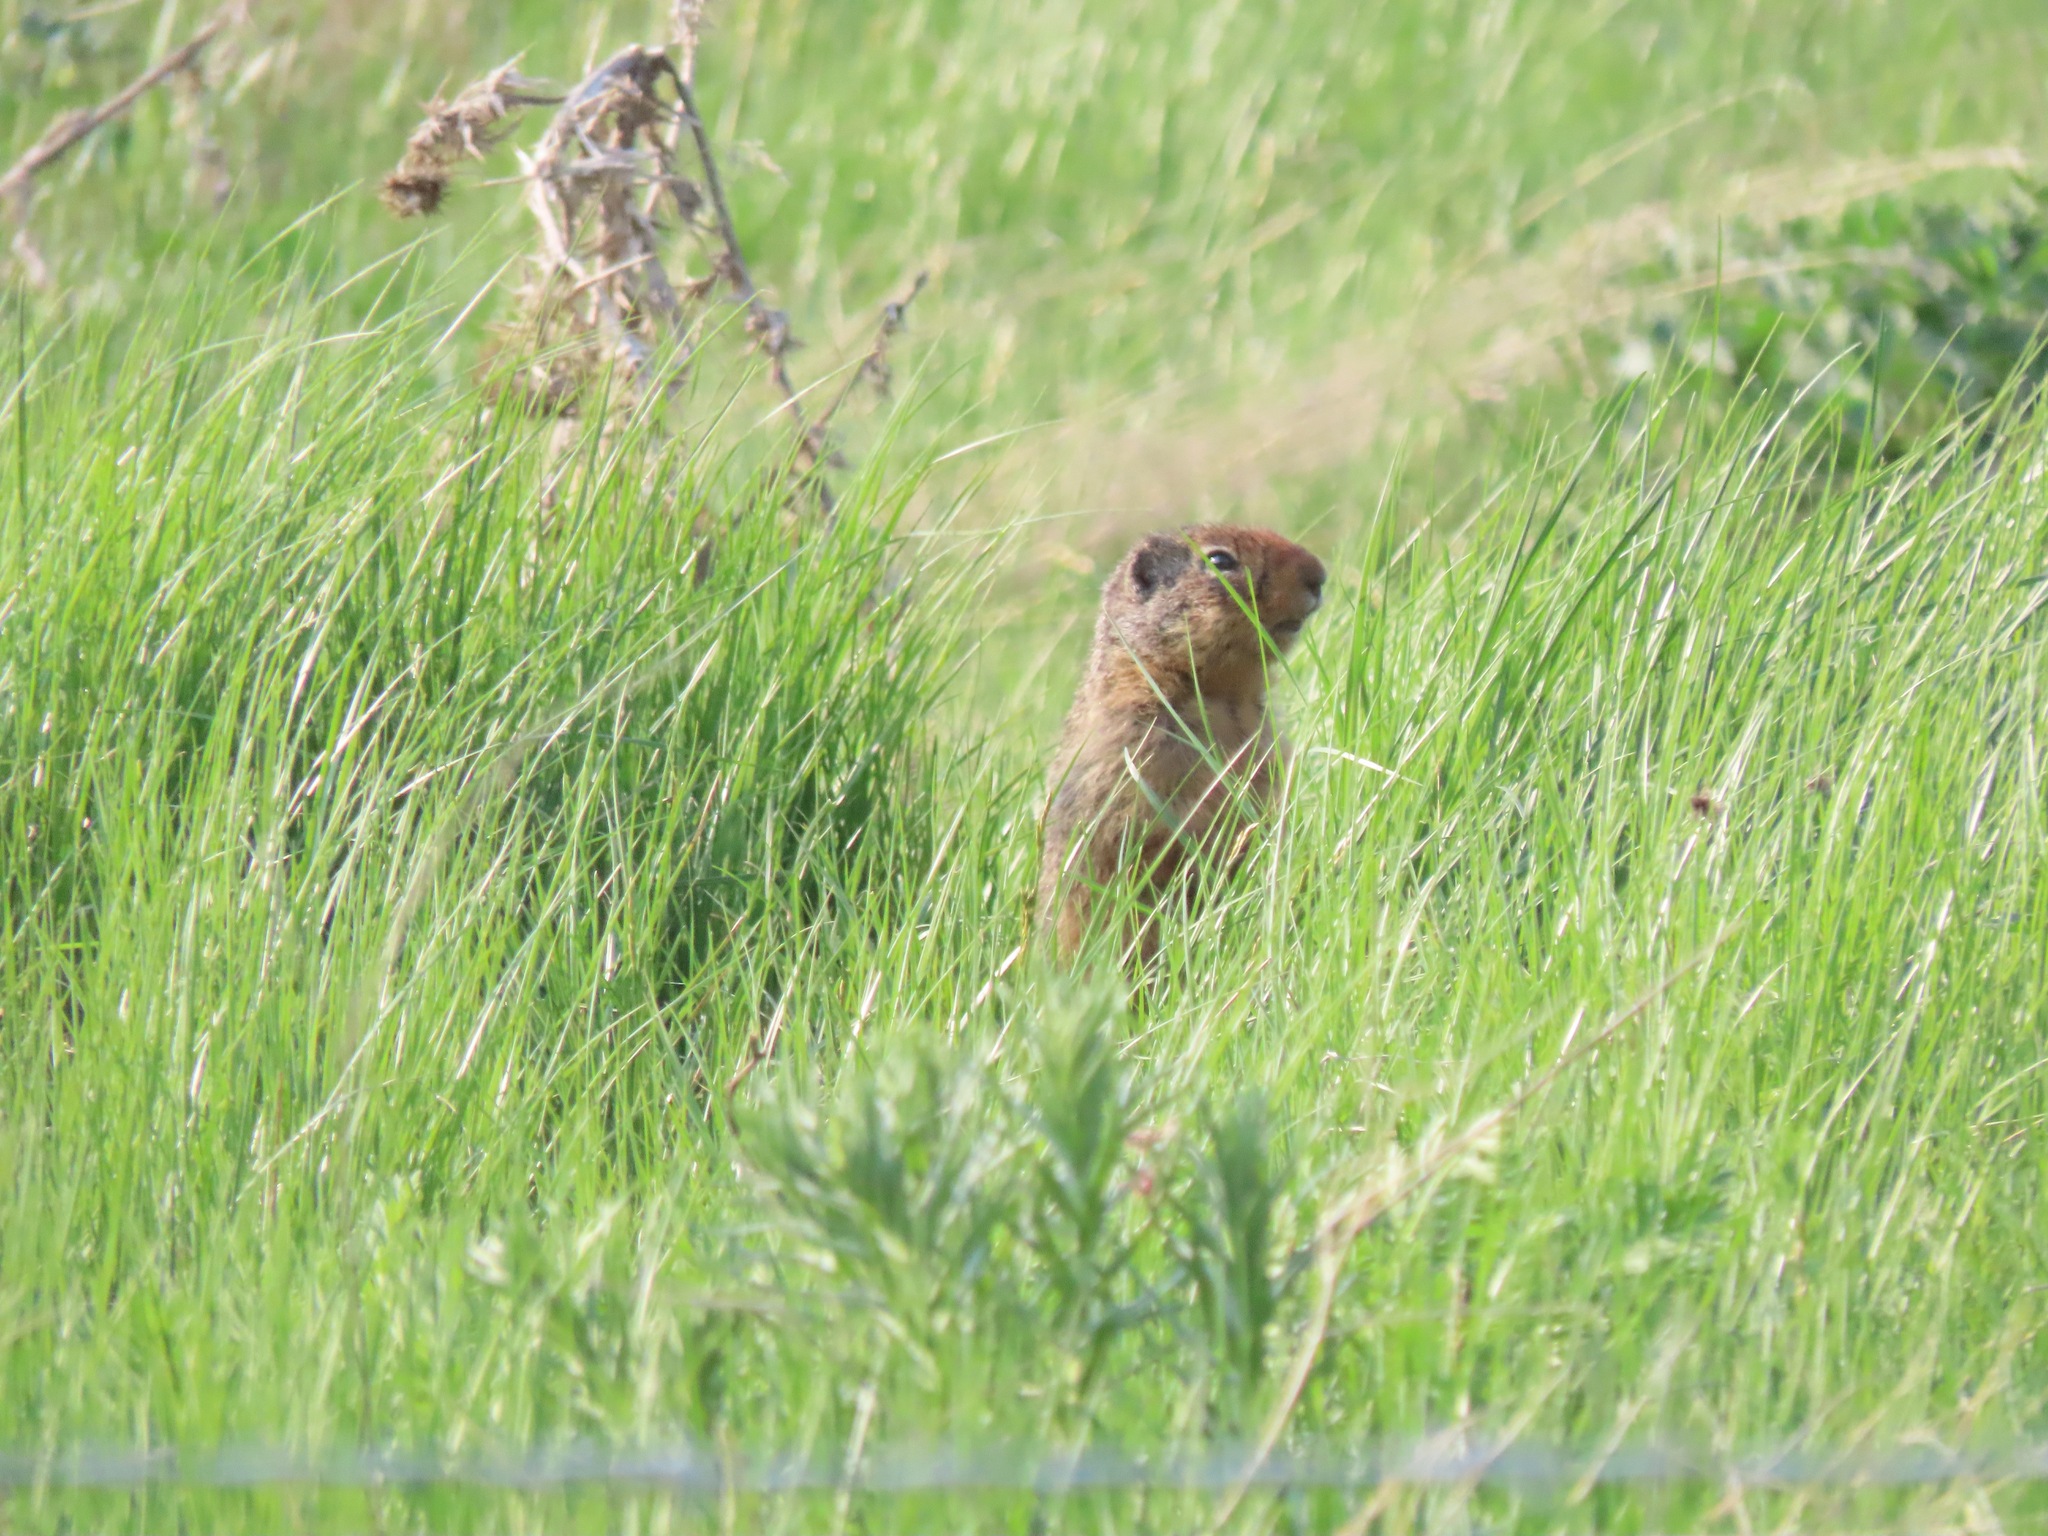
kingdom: Animalia
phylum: Chordata
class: Mammalia
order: Rodentia
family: Sciuridae
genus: Urocitellus
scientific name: Urocitellus columbianus
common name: Columbian ground squirrel
